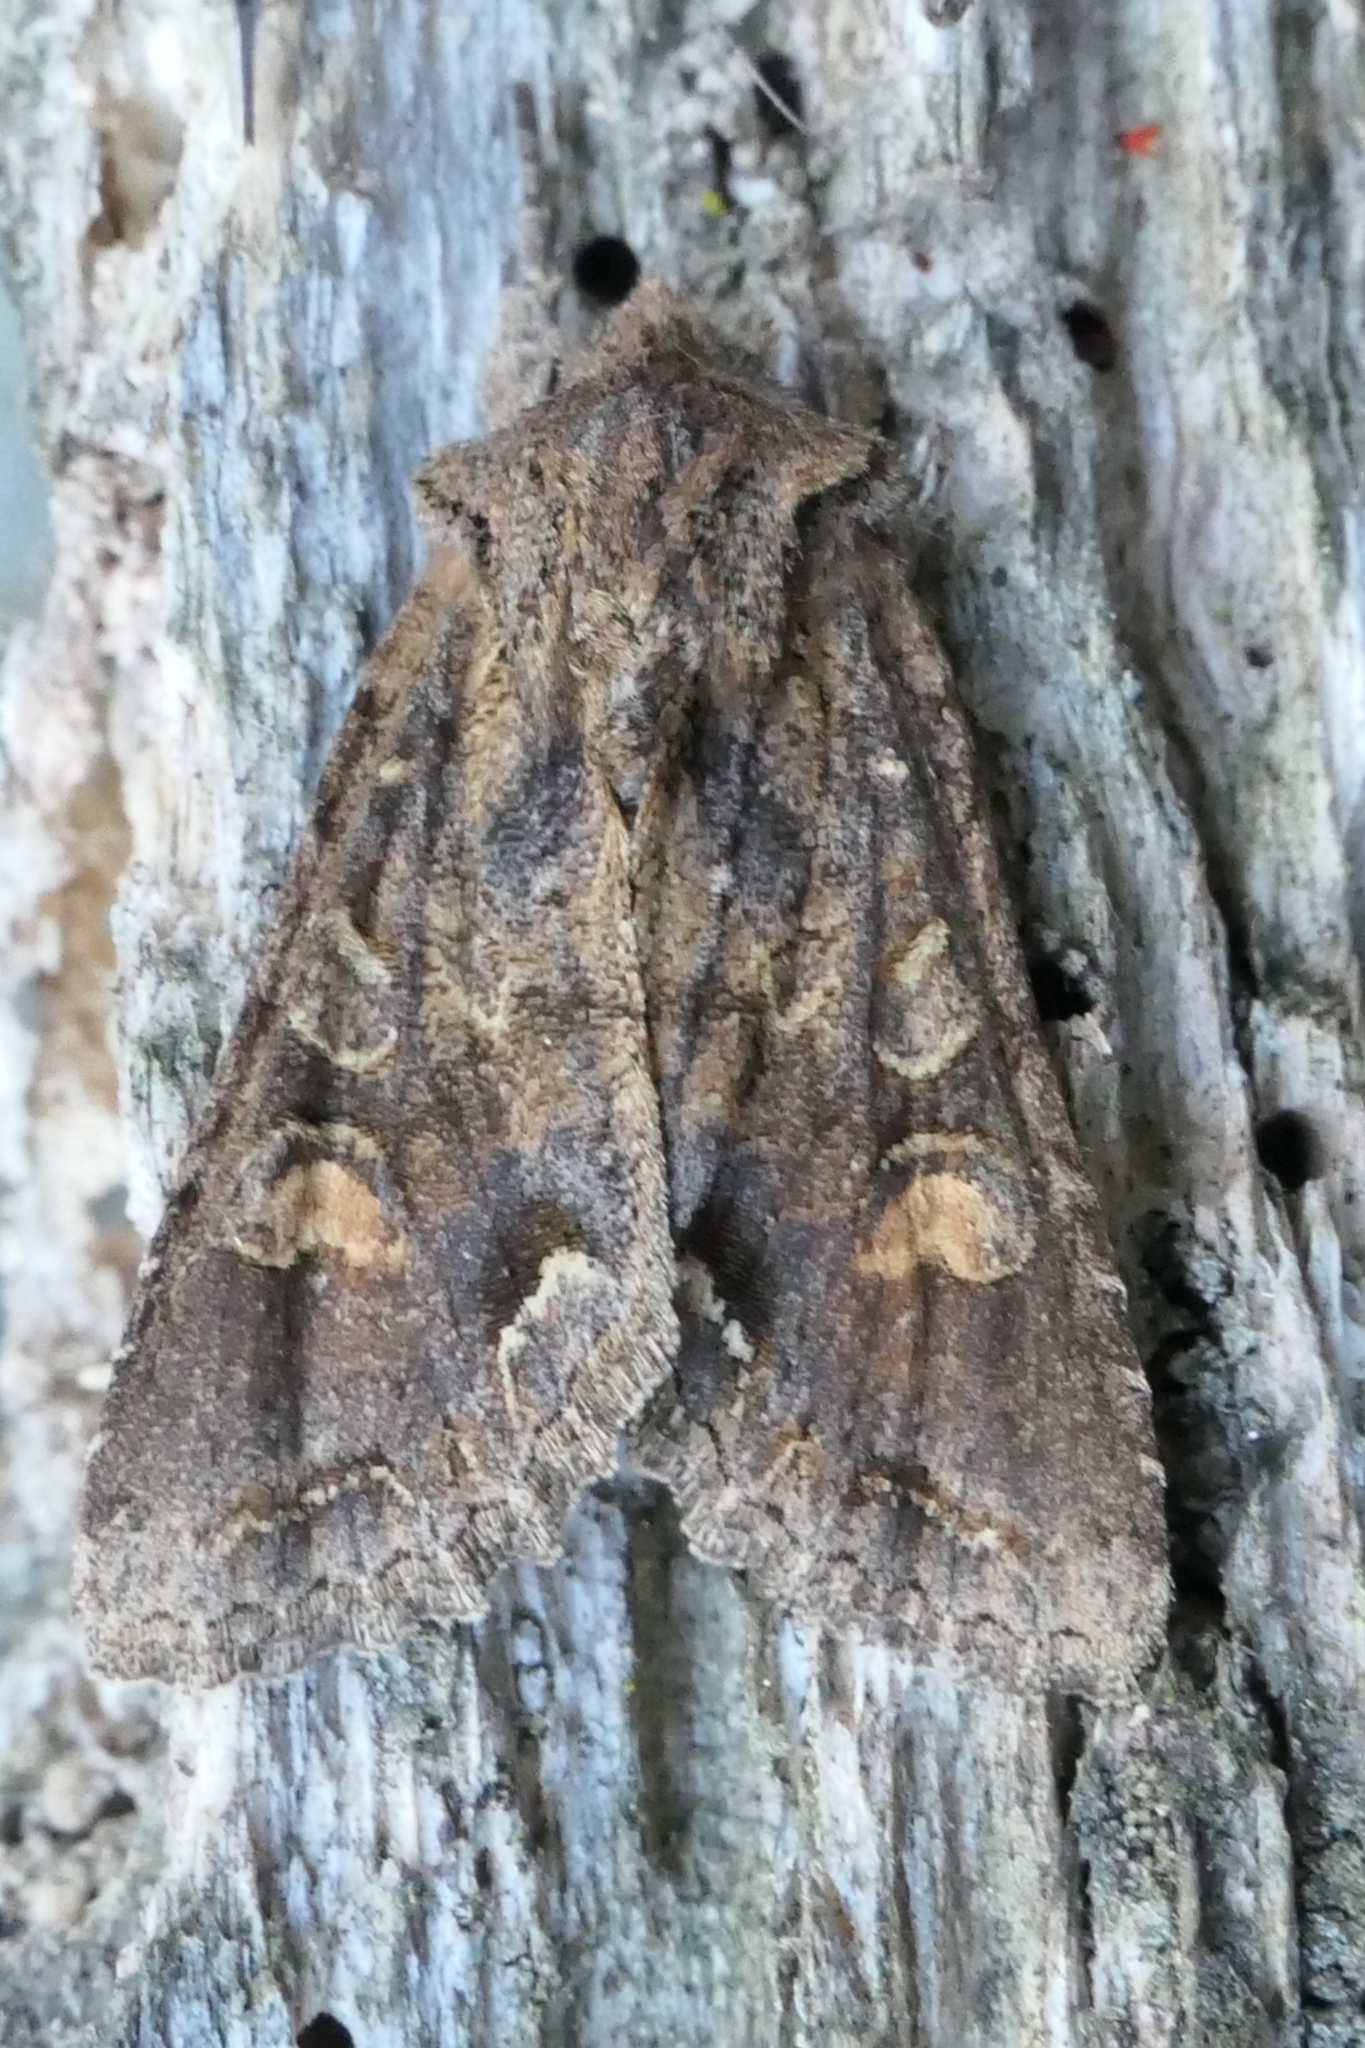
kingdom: Animalia
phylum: Arthropoda
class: Insecta
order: Lepidoptera
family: Noctuidae
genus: Ichneutica
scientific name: Ichneutica
